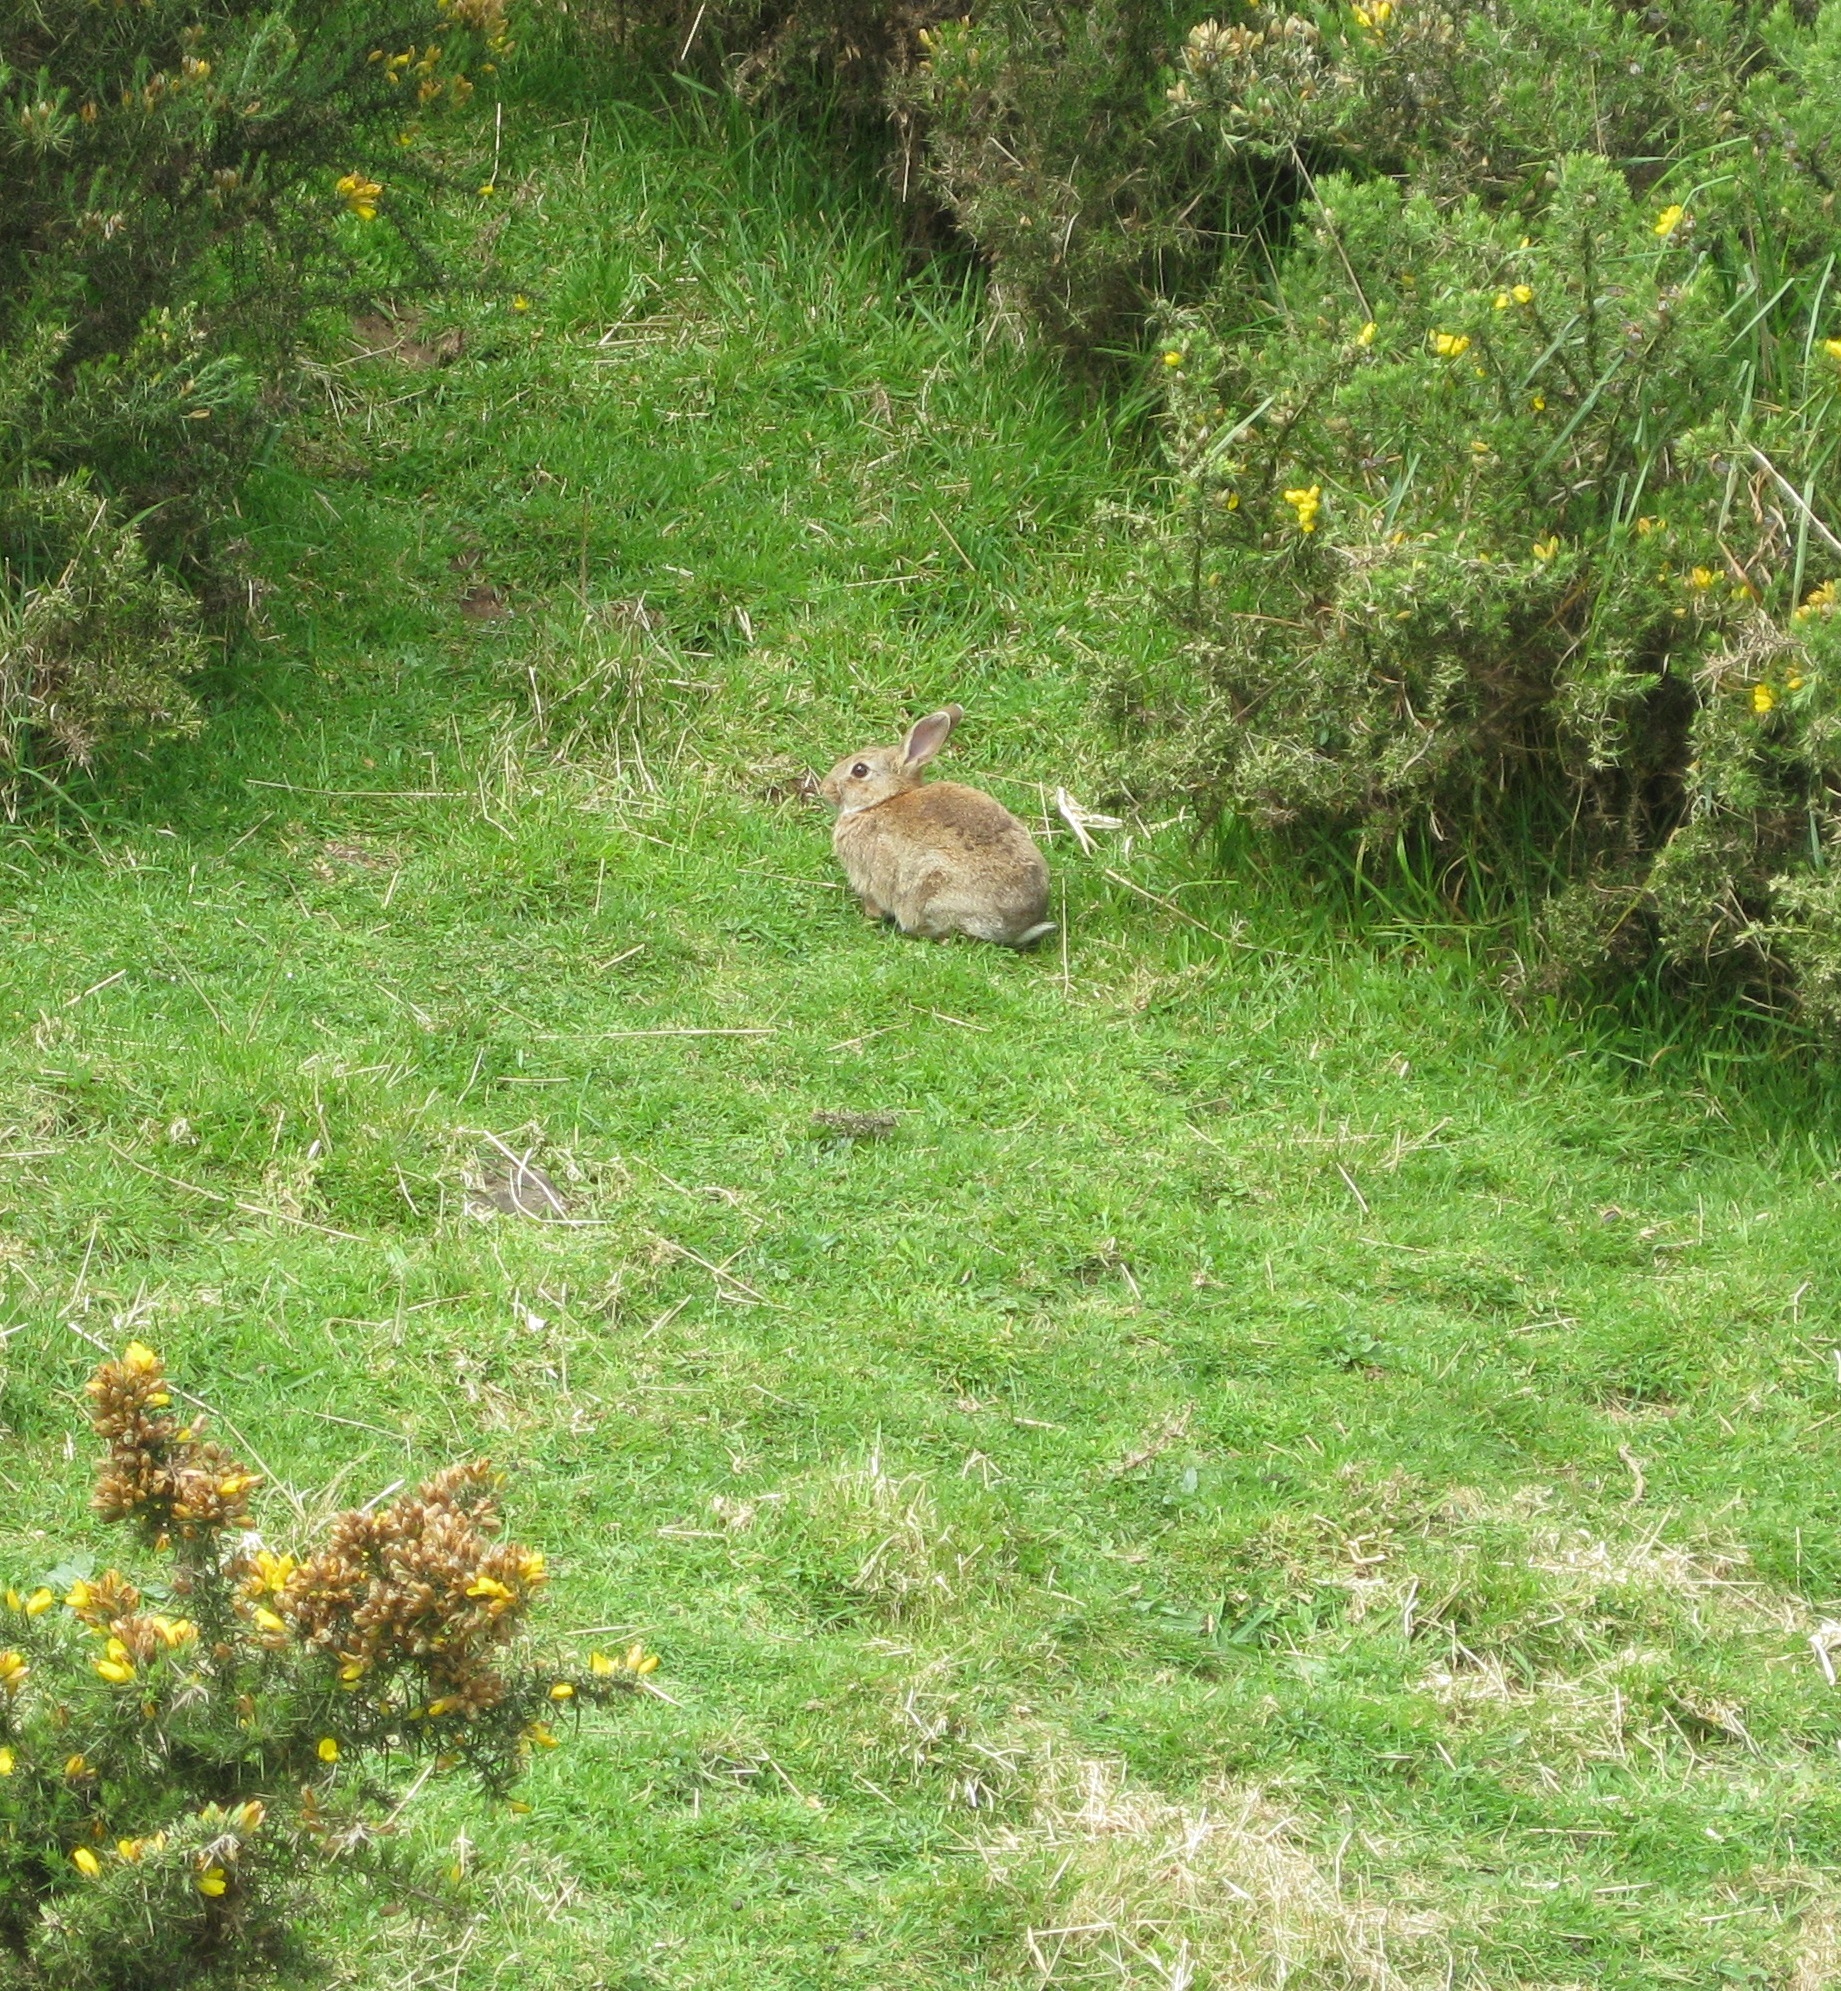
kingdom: Animalia
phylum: Chordata
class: Mammalia
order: Lagomorpha
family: Leporidae
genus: Oryctolagus
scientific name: Oryctolagus cuniculus
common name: European rabbit
